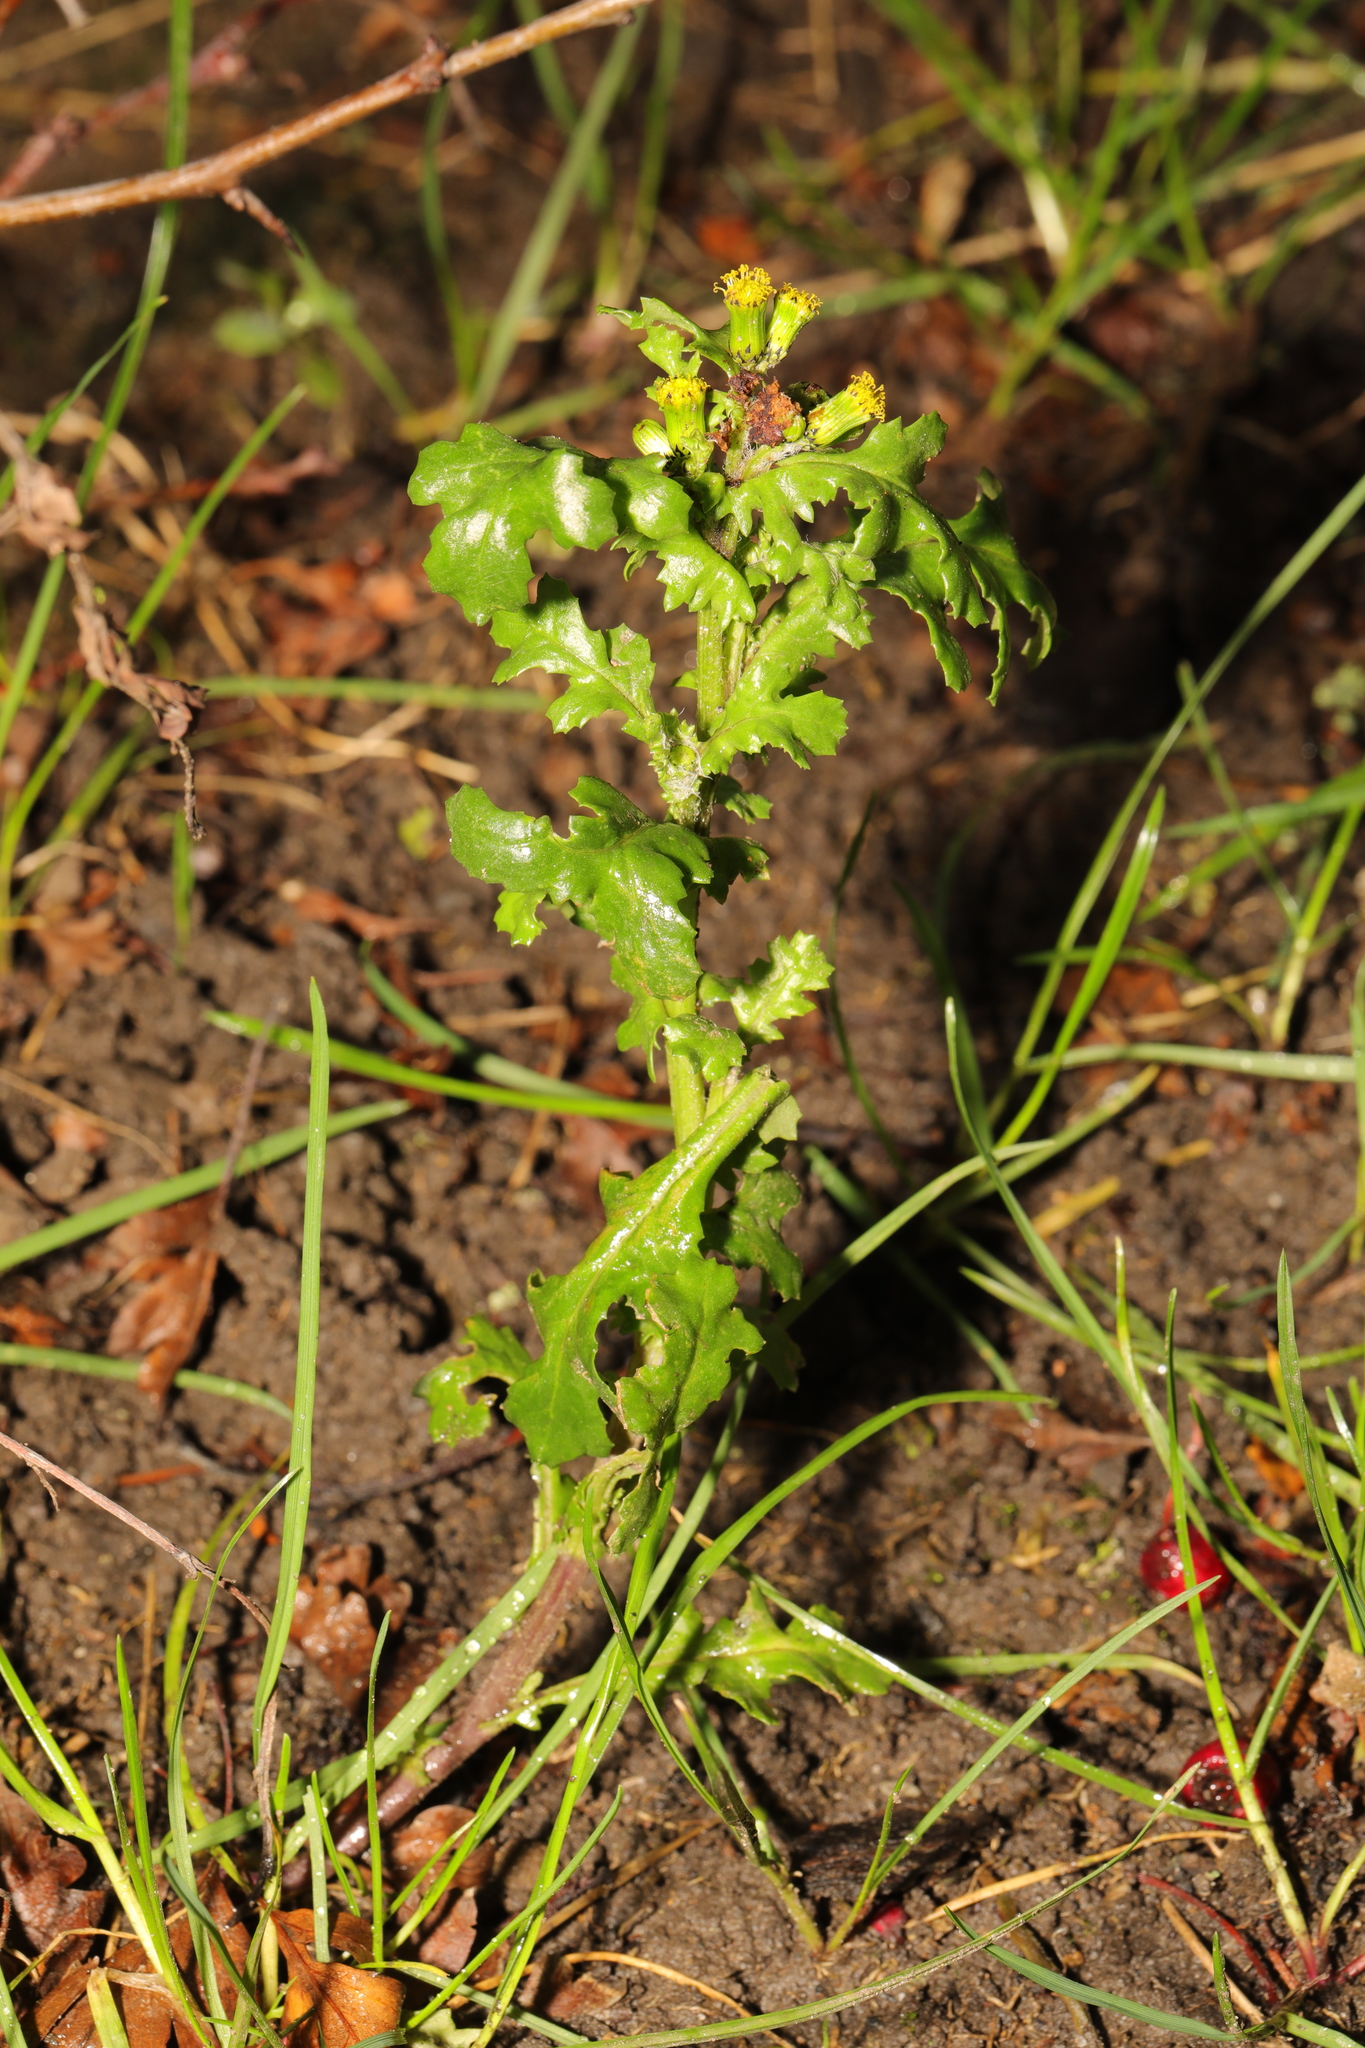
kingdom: Plantae
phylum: Tracheophyta
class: Magnoliopsida
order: Asterales
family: Asteraceae
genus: Senecio
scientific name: Senecio vulgaris
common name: Old-man-in-the-spring
